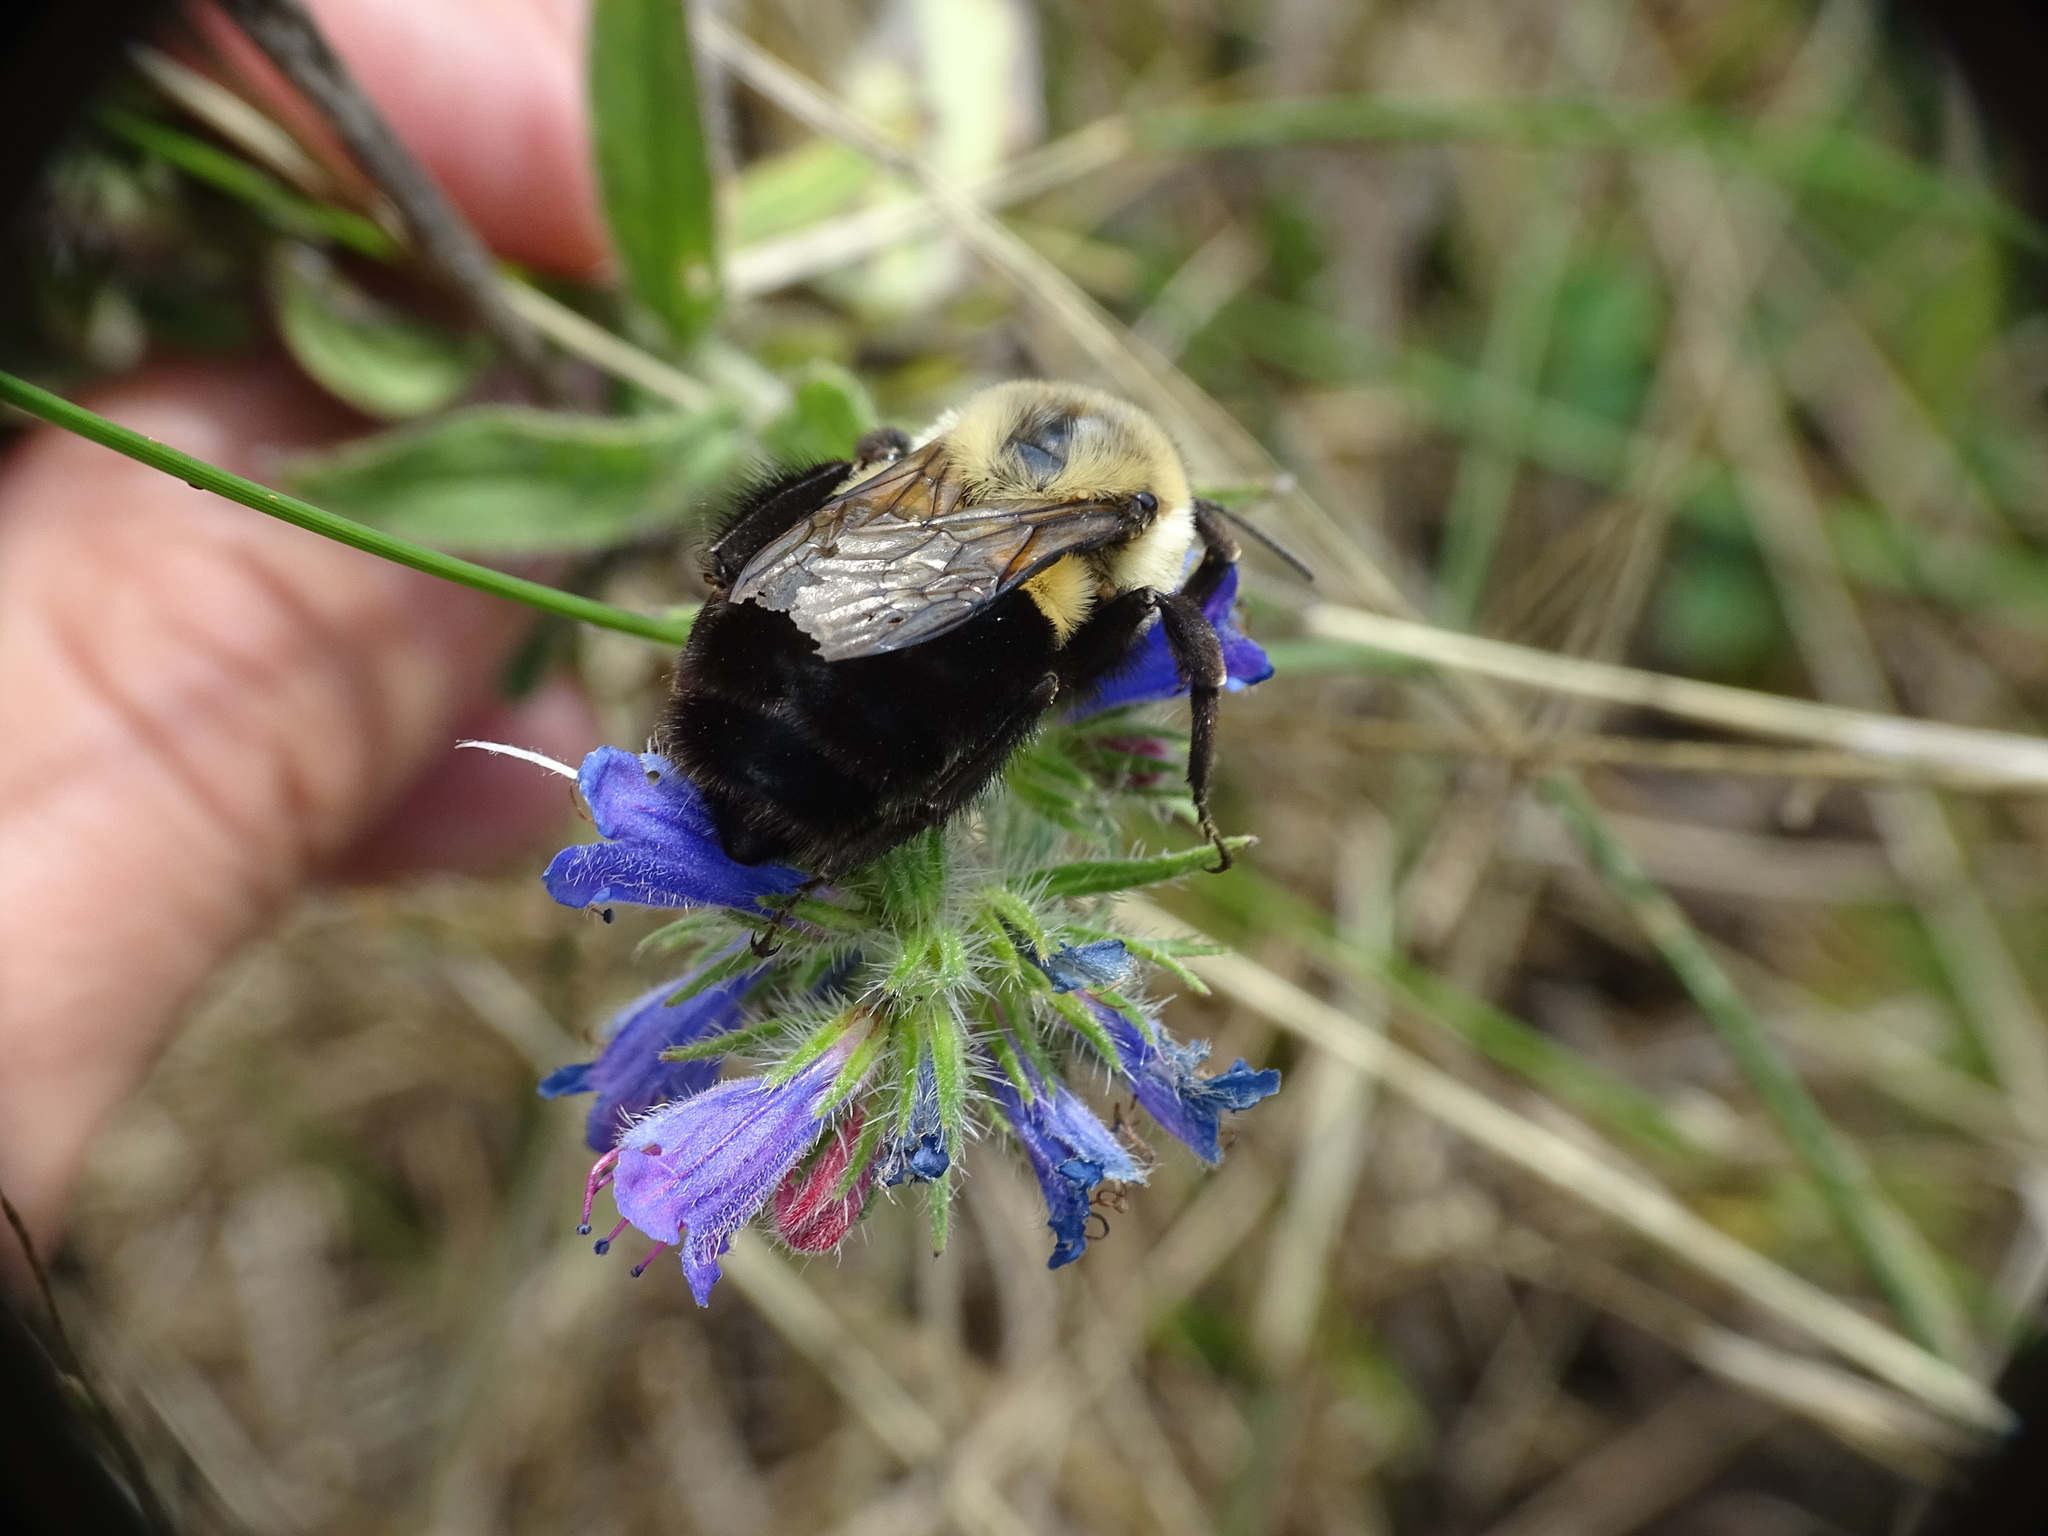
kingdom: Animalia
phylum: Arthropoda
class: Insecta
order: Hymenoptera
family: Apidae
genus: Bombus
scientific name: Bombus impatiens
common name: Common eastern bumble bee
